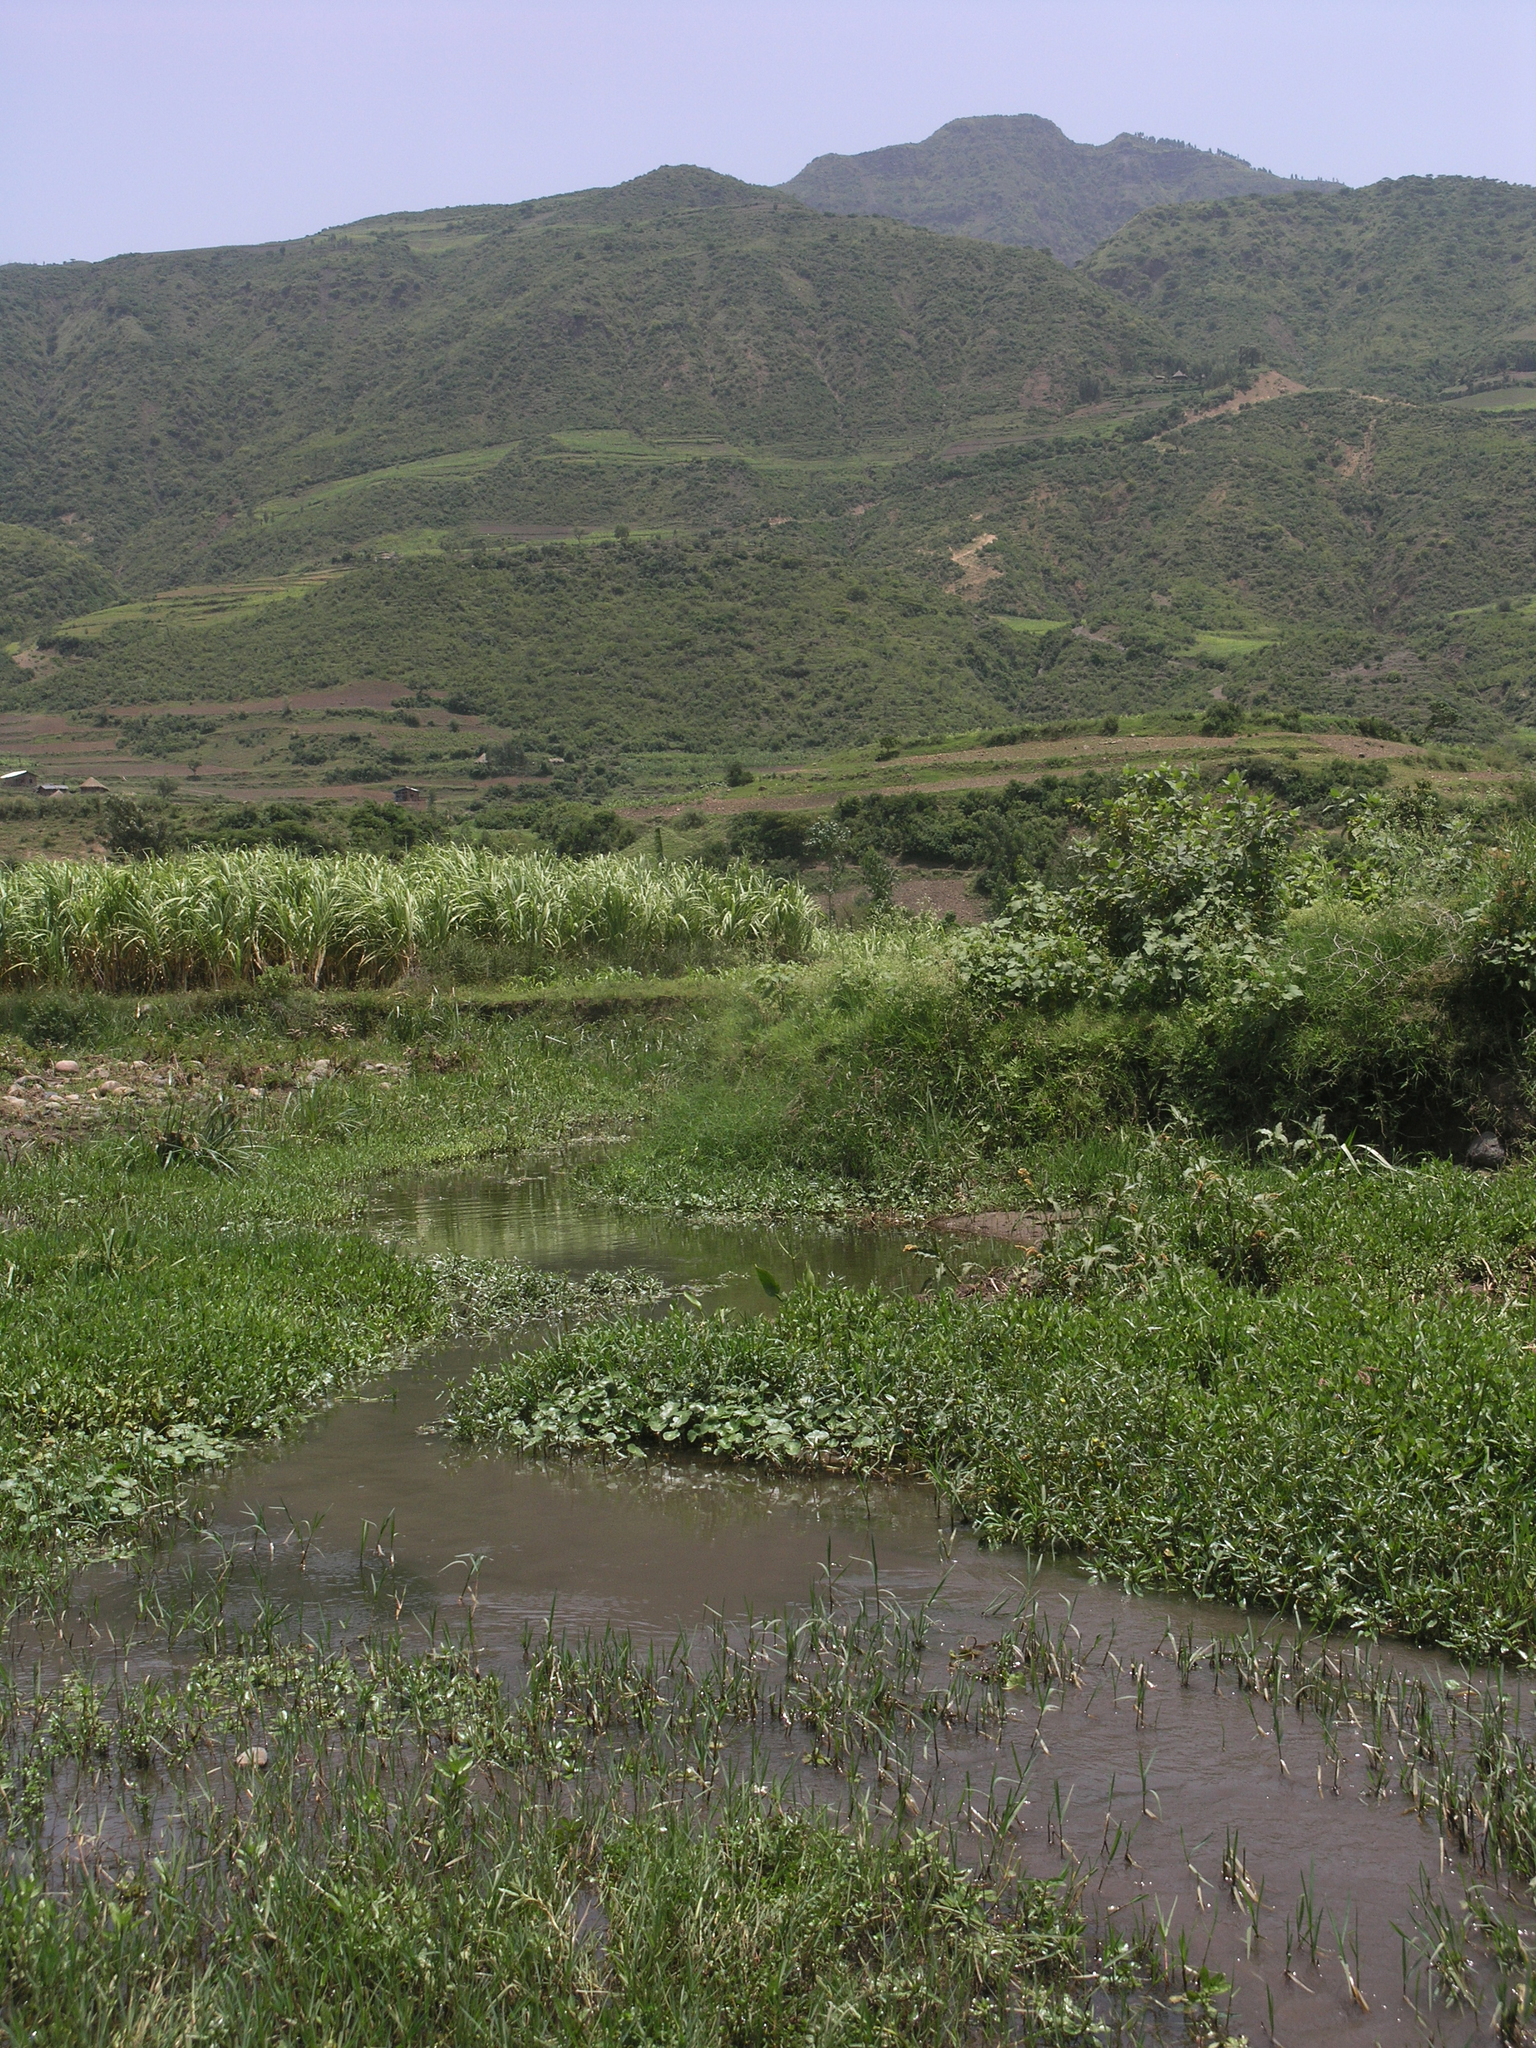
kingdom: Animalia
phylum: Arthropoda
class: Insecta
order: Odonata
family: Coenagrionidae
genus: Pseudagrion
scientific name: Pseudagrion kersteni
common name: Powder-faced sprite
